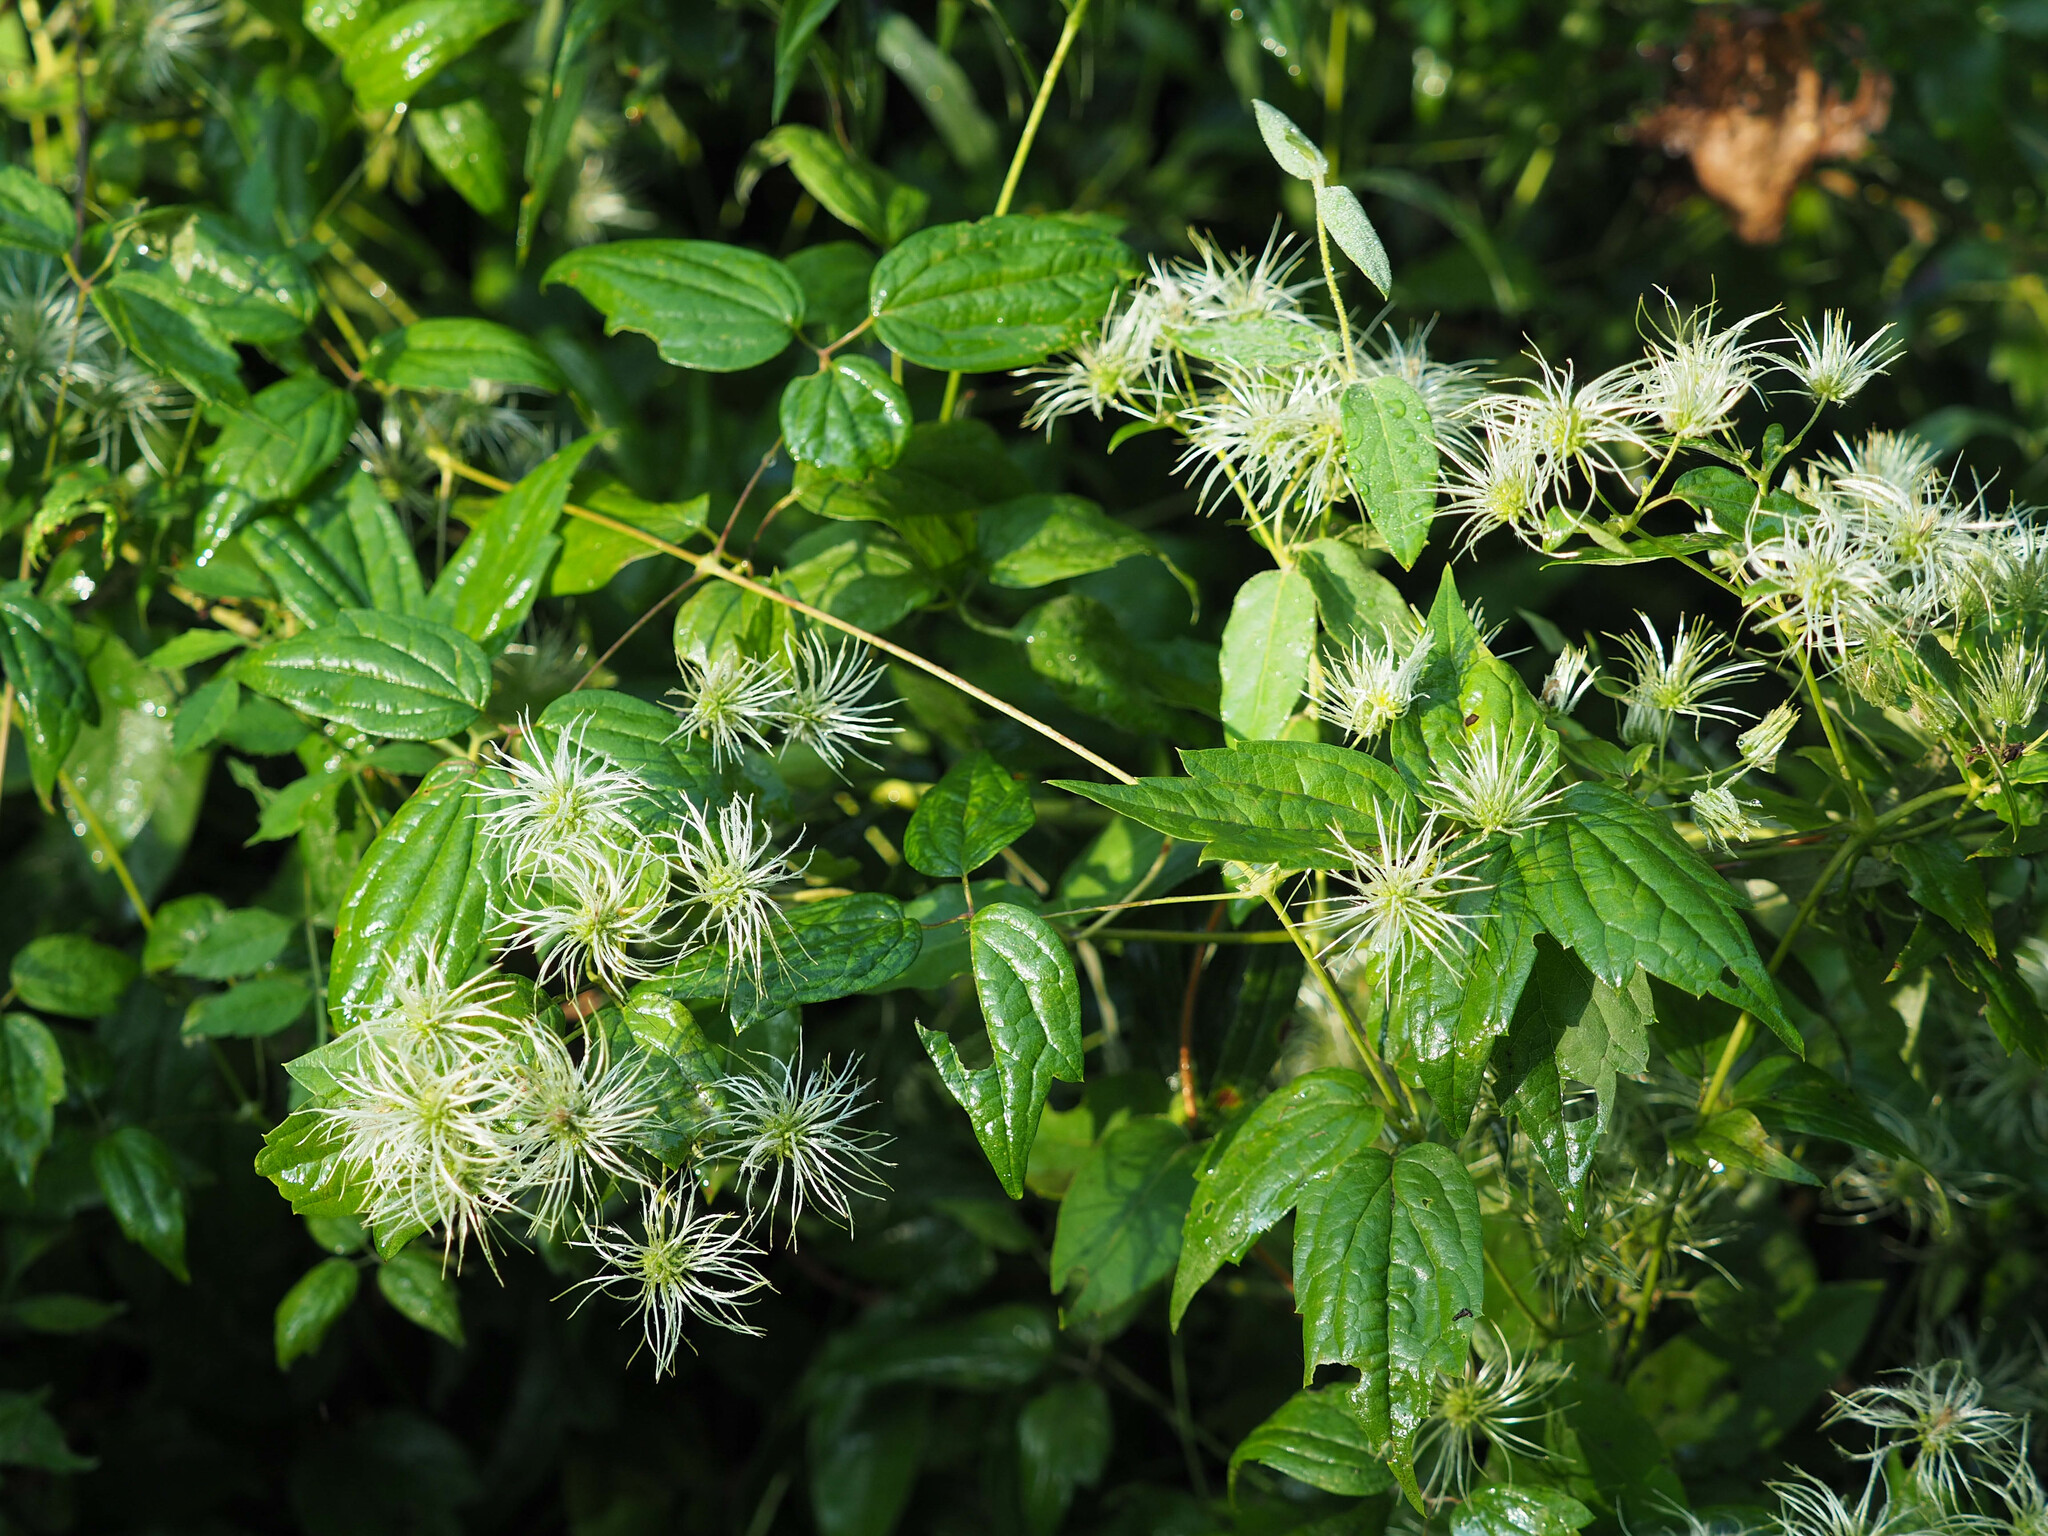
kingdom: Plantae
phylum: Tracheophyta
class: Magnoliopsida
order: Ranunculales
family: Ranunculaceae
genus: Clematis
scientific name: Clematis virginiana
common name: Virgin's-bower
